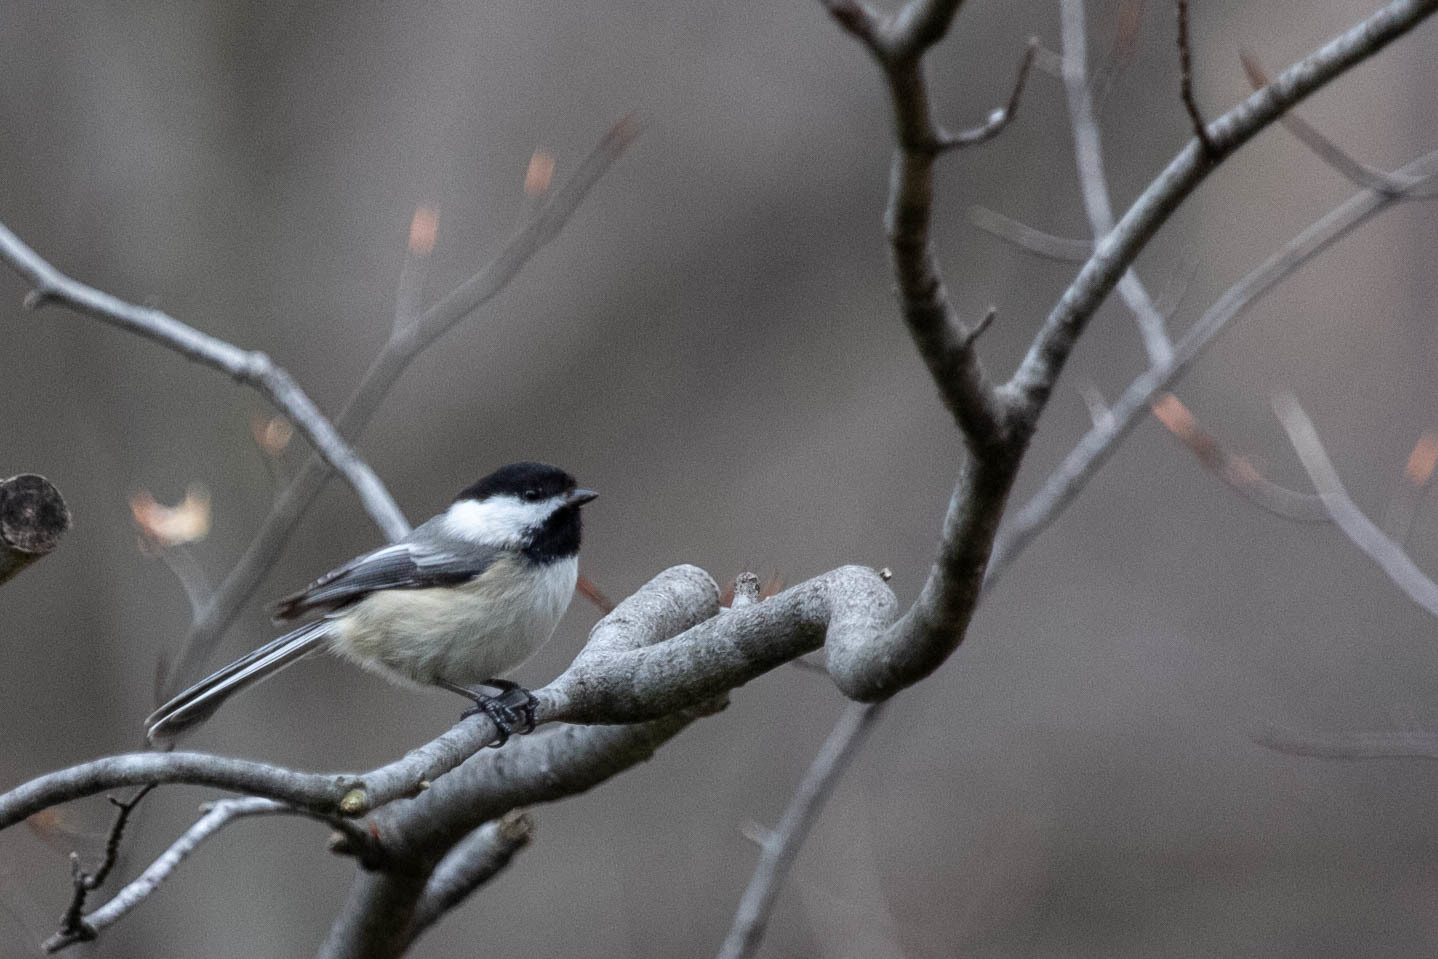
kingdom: Animalia
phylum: Chordata
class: Aves
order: Passeriformes
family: Paridae
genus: Poecile
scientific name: Poecile atricapillus
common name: Black-capped chickadee
